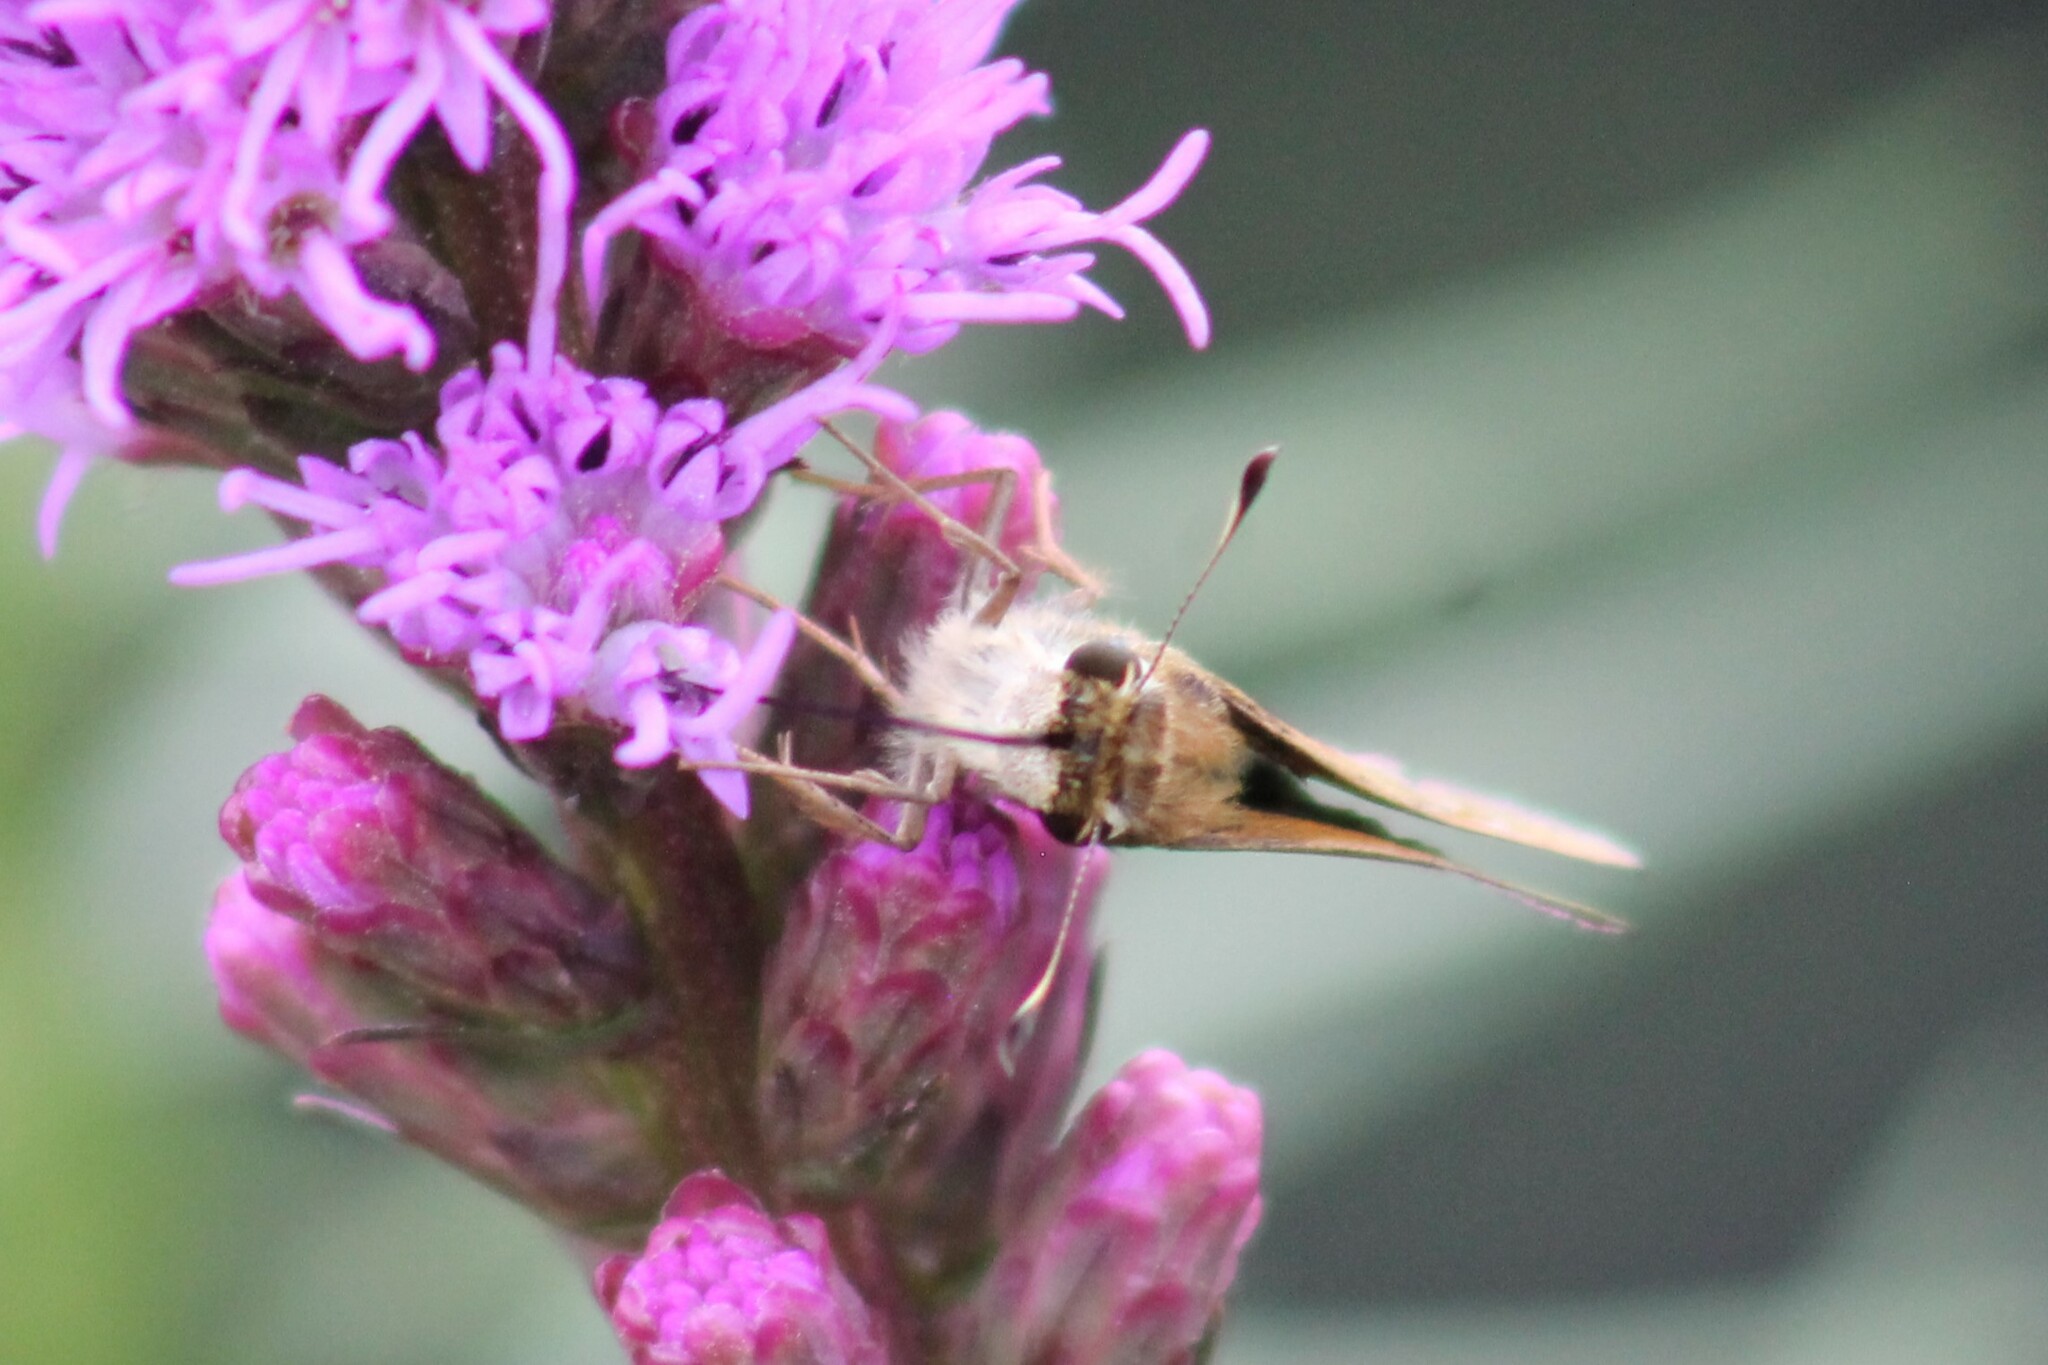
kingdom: Animalia
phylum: Arthropoda
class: Insecta
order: Lepidoptera
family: Hesperiidae
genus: Atalopedes
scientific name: Atalopedes
